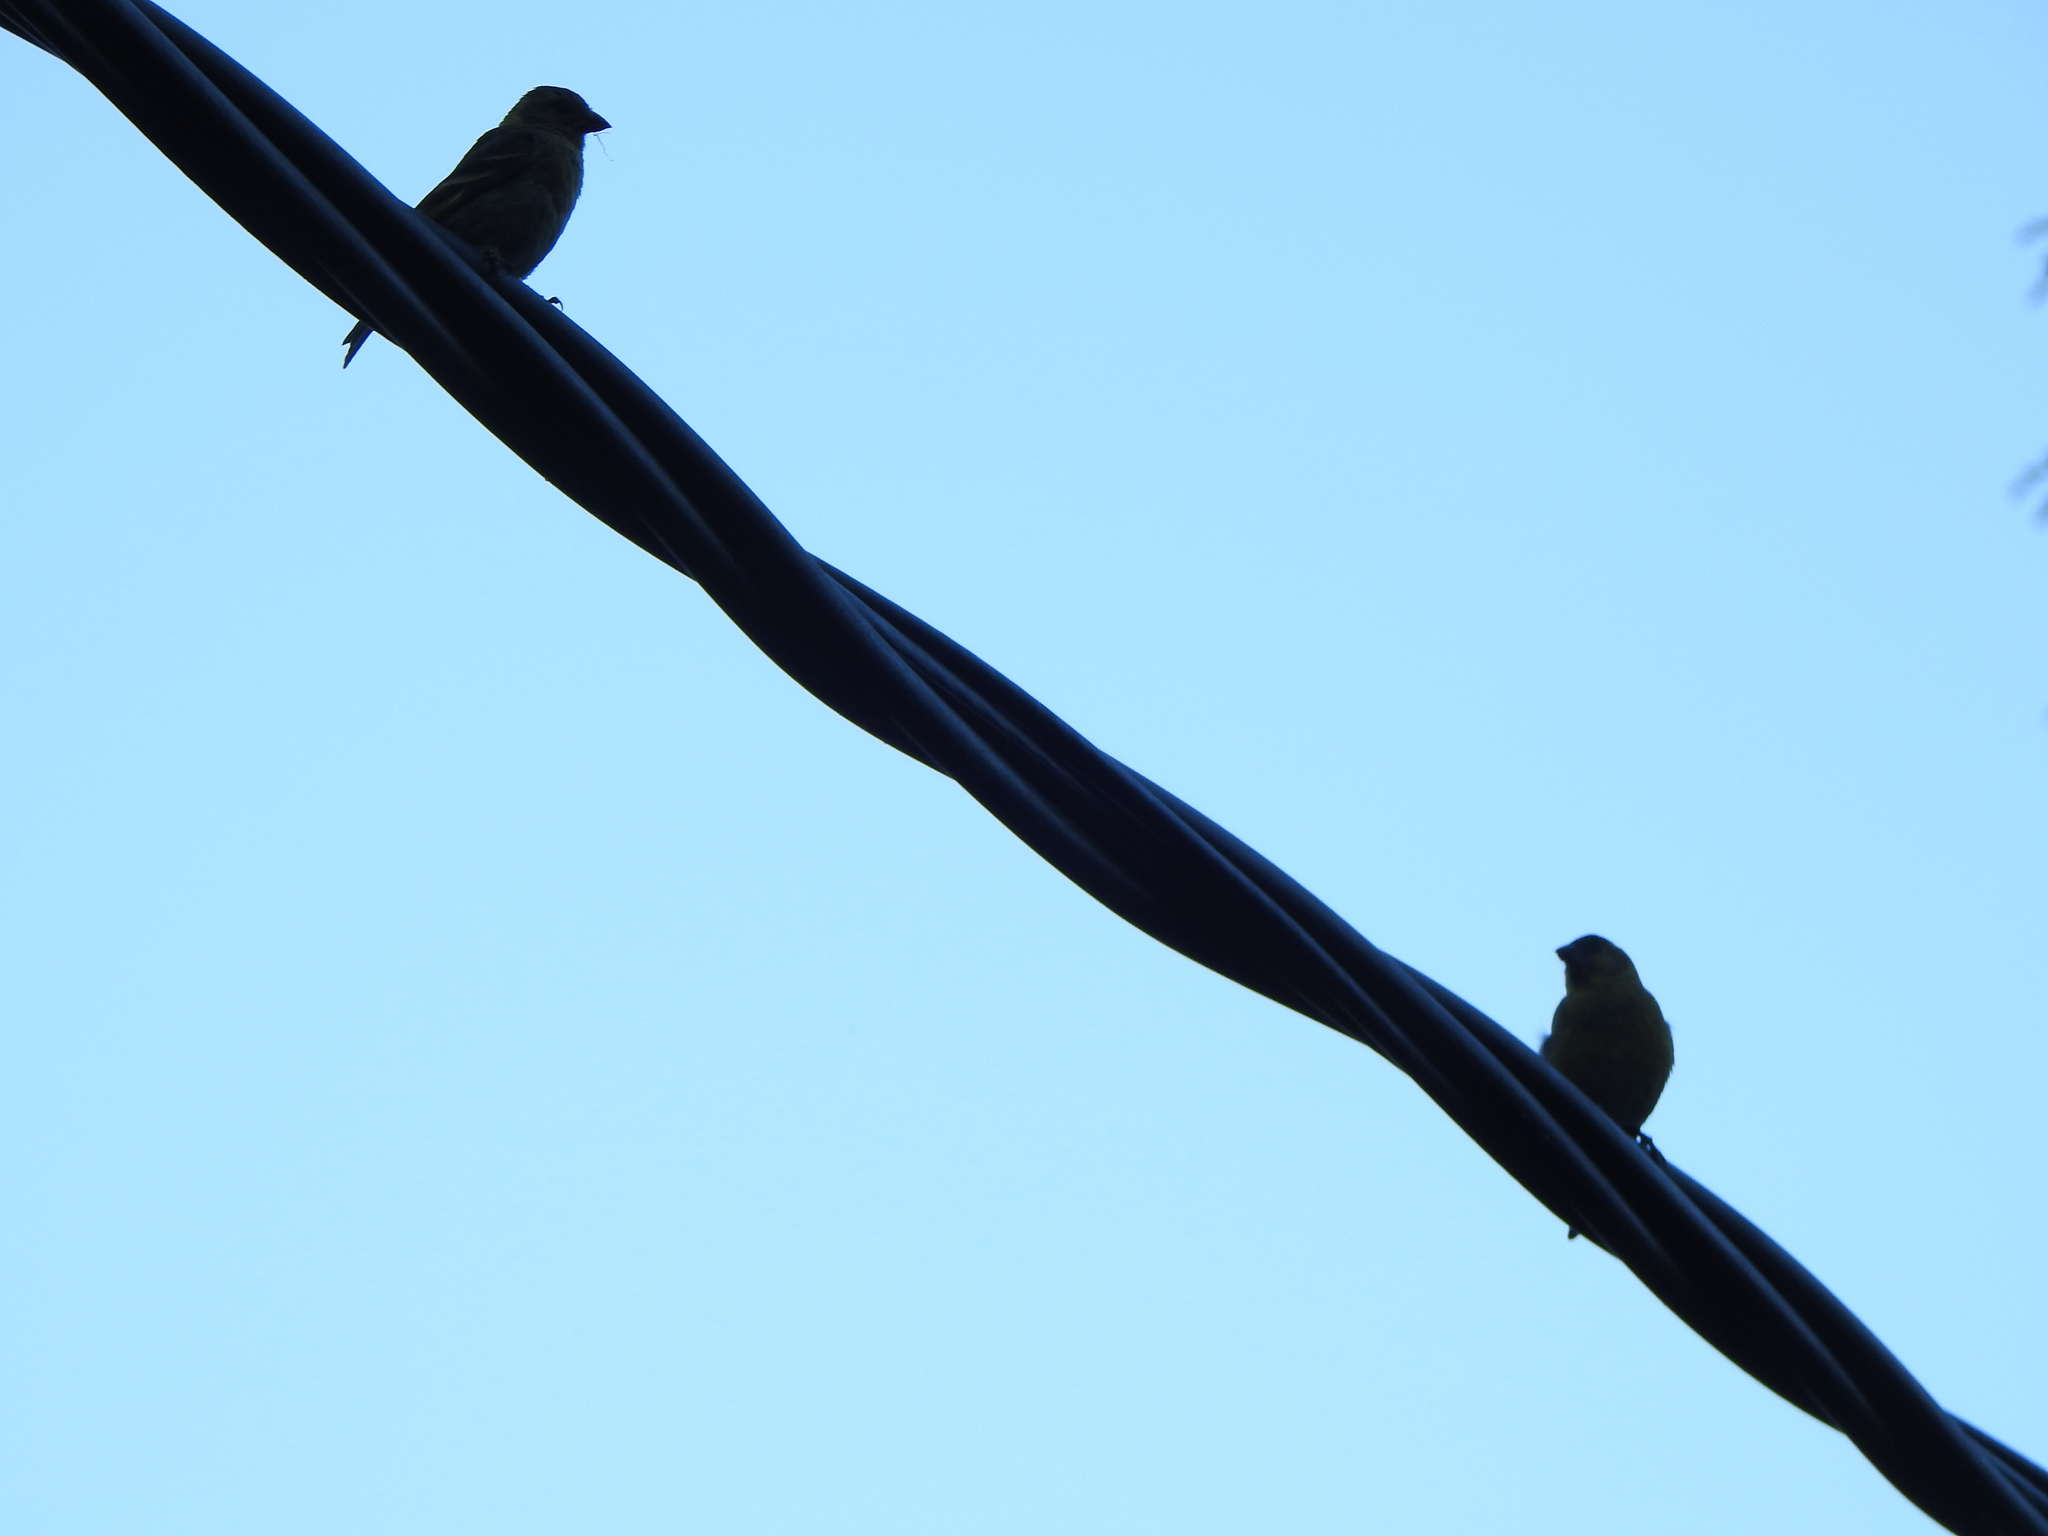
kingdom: Animalia
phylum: Chordata
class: Aves
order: Passeriformes
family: Fringillidae
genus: Spinus
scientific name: Spinus barbatus
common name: Black-chinned siskin
